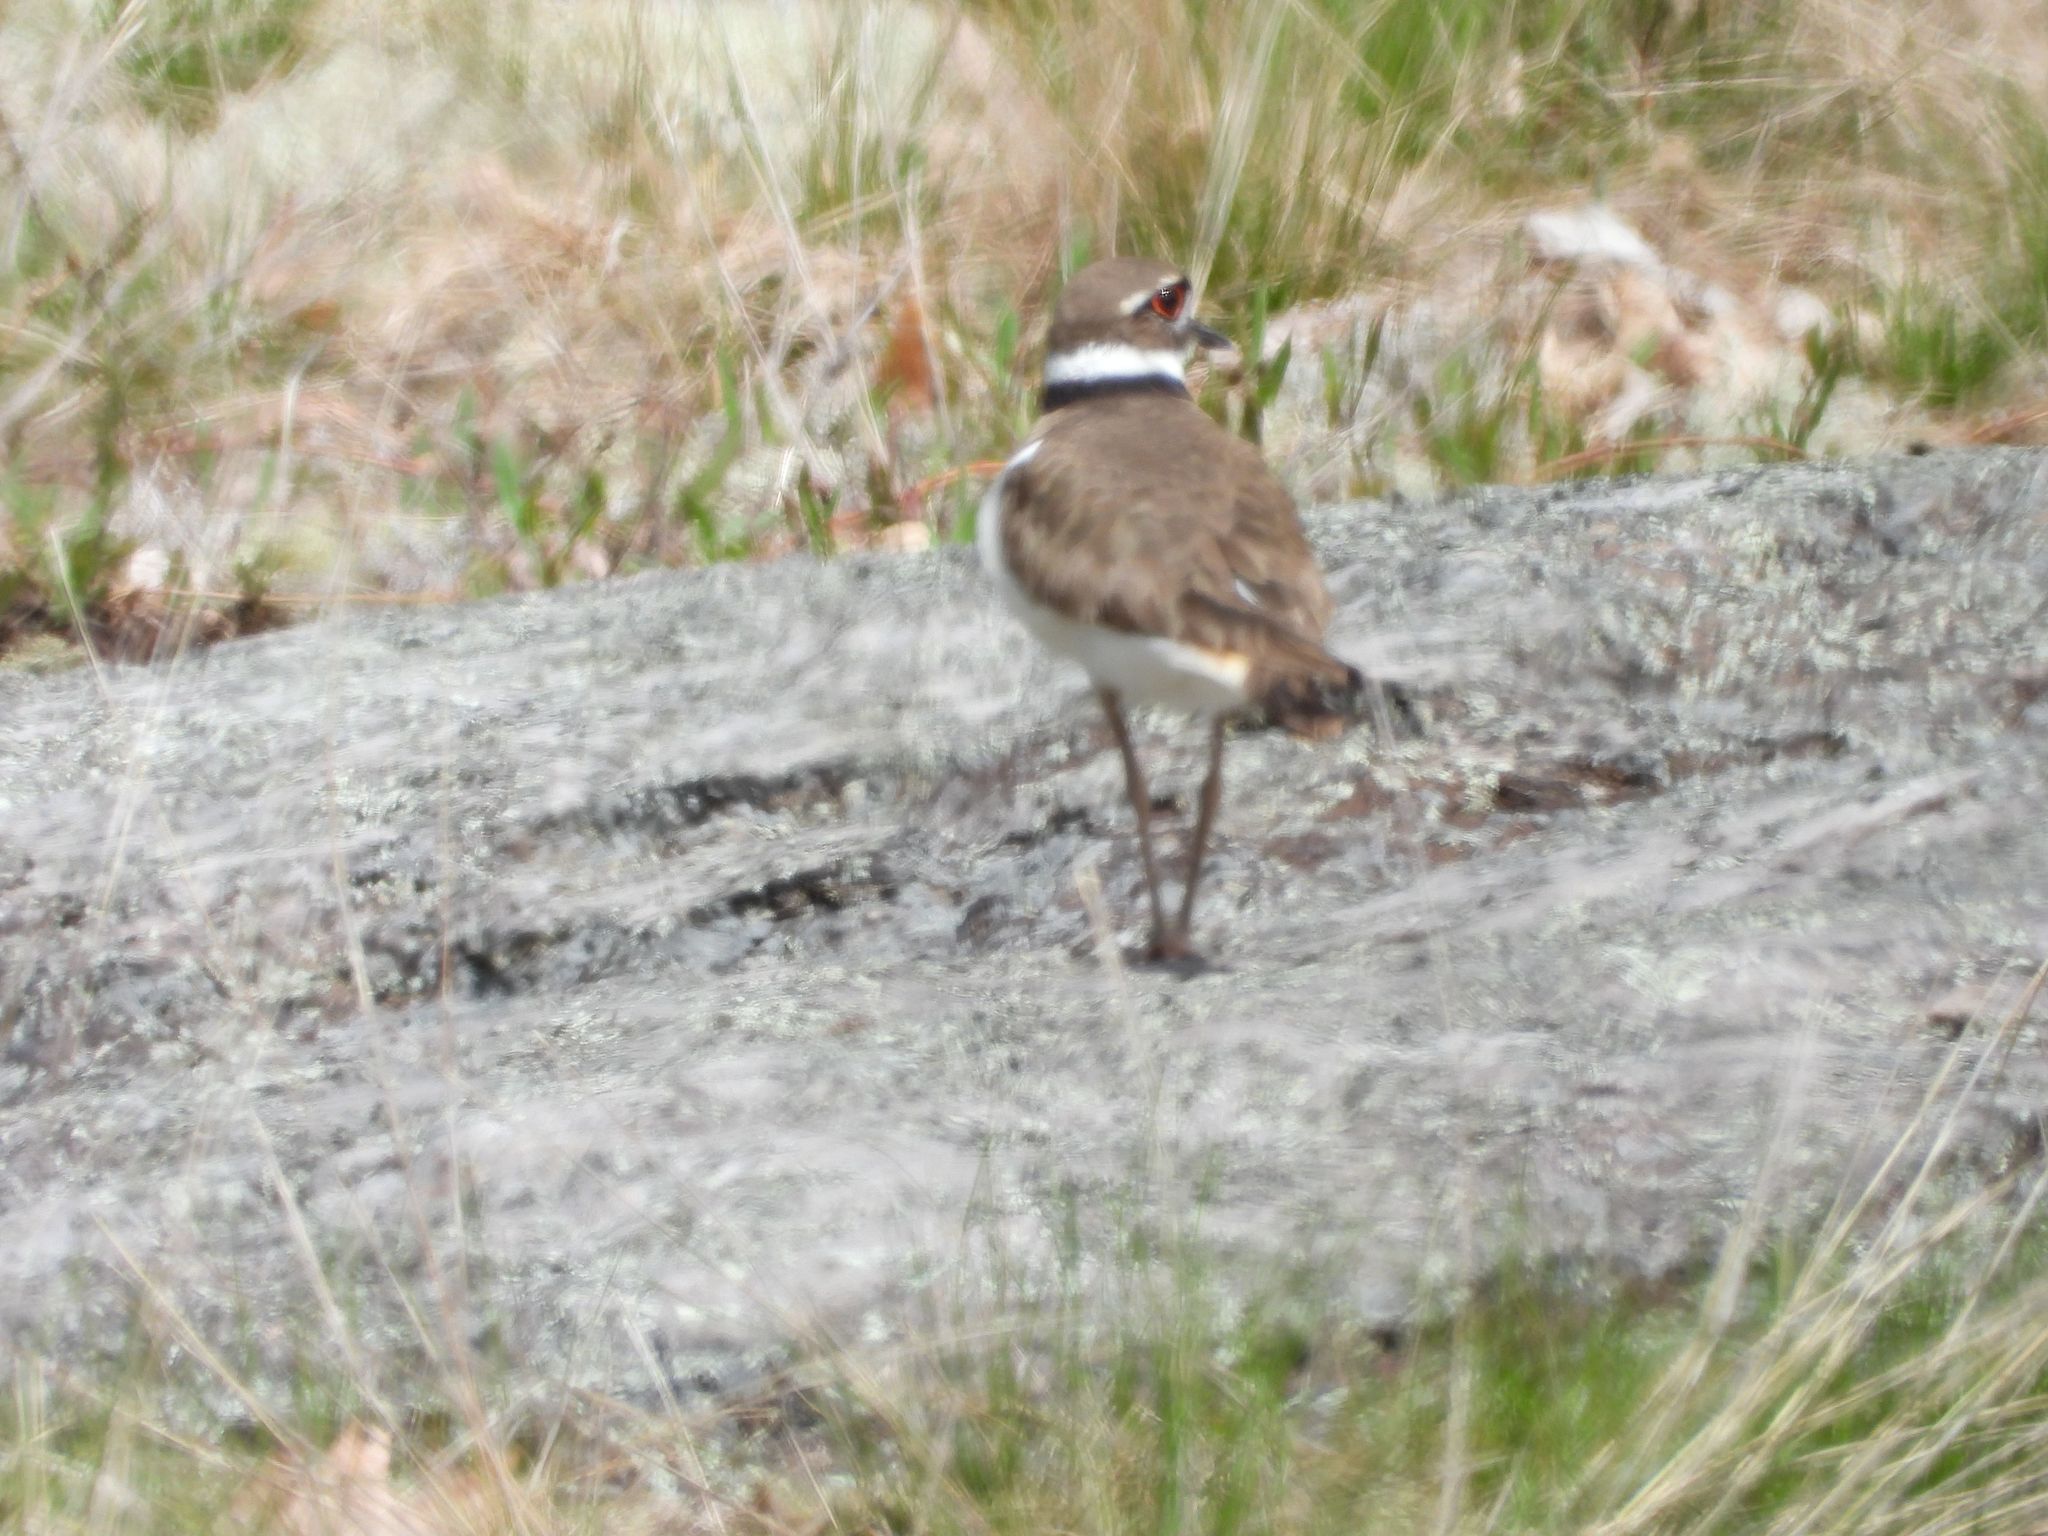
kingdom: Animalia
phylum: Chordata
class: Aves
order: Charadriiformes
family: Charadriidae
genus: Charadrius
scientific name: Charadrius vociferus
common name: Killdeer
